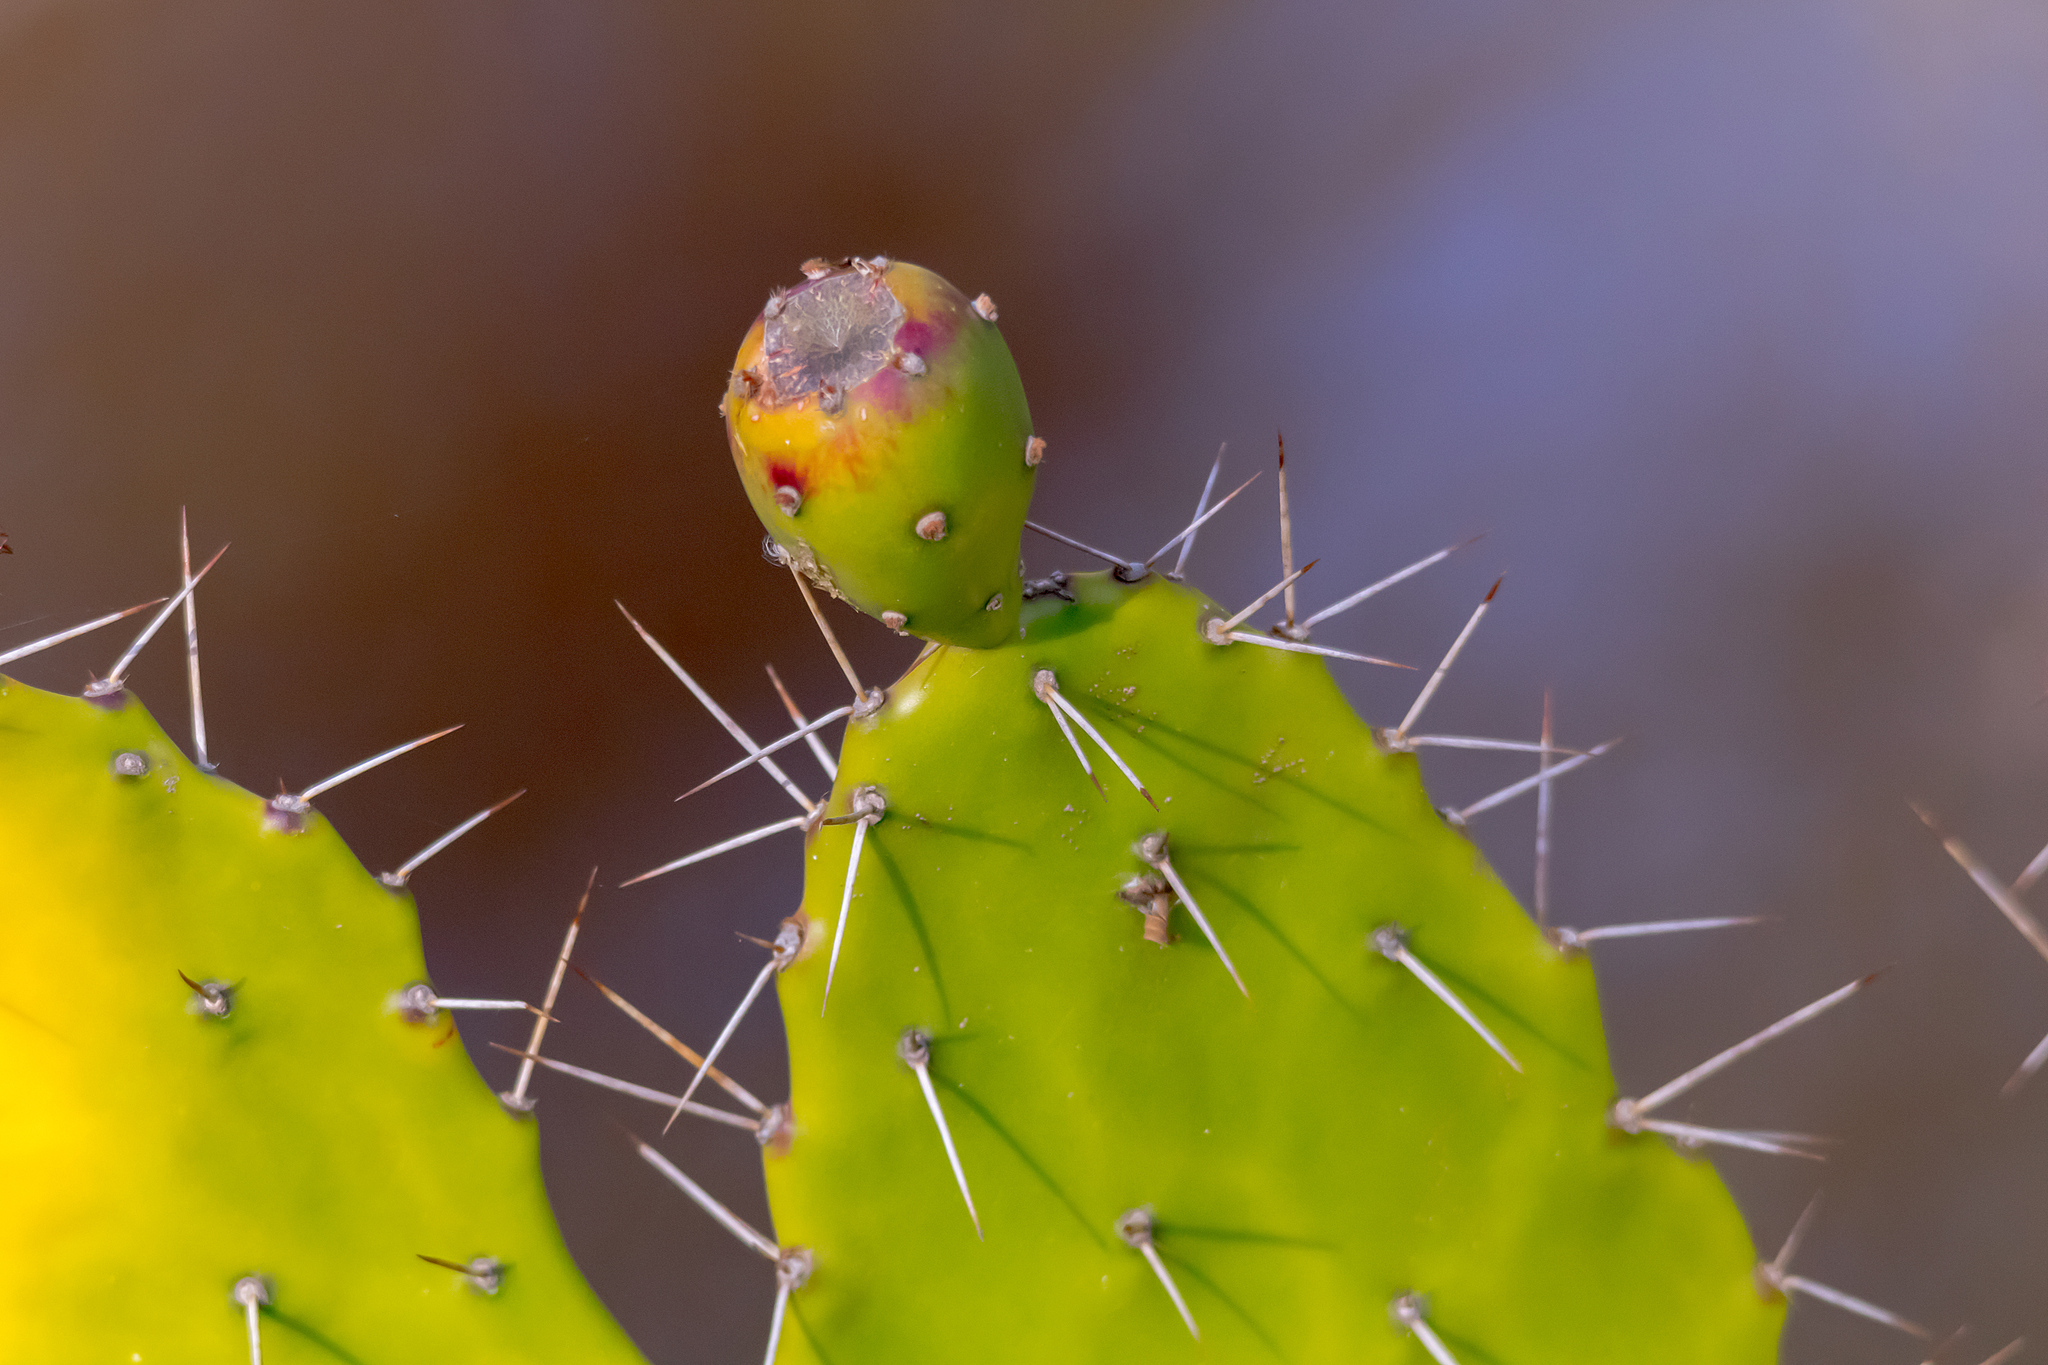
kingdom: Plantae
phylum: Tracheophyta
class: Magnoliopsida
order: Caryophyllales
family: Cactaceae
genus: Opuntia
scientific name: Opuntia monacantha
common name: Common pricklypear
